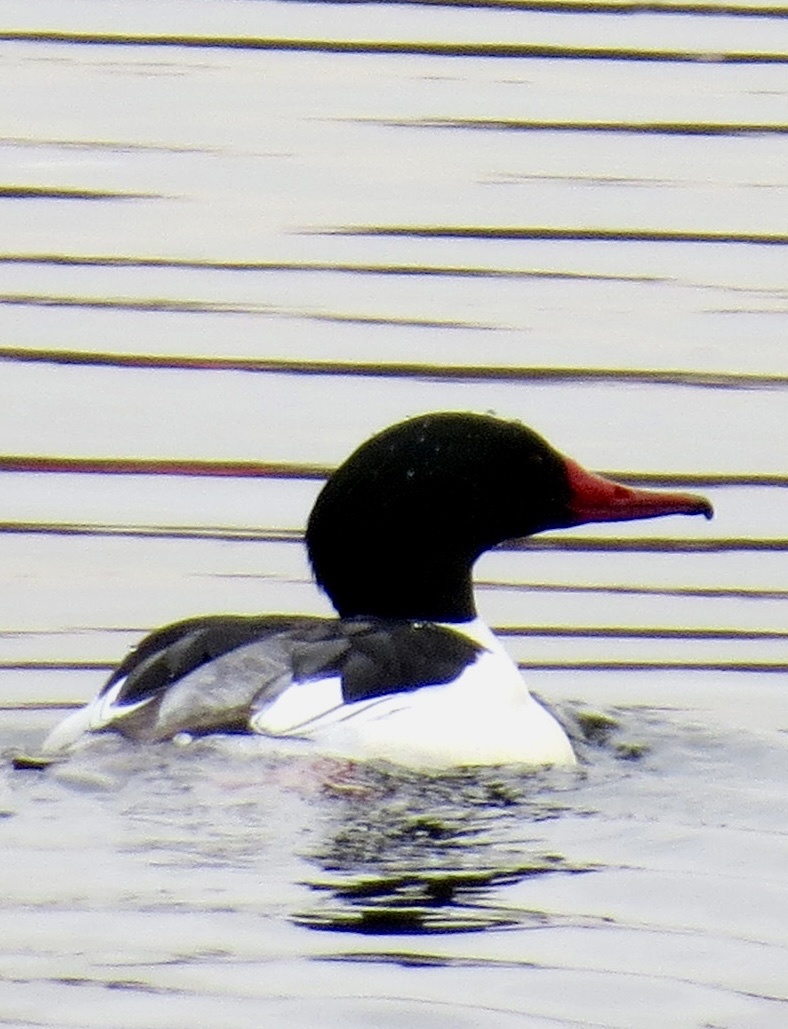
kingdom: Animalia
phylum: Chordata
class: Aves
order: Anseriformes
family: Anatidae
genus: Mergus
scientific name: Mergus merganser
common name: Common merganser
